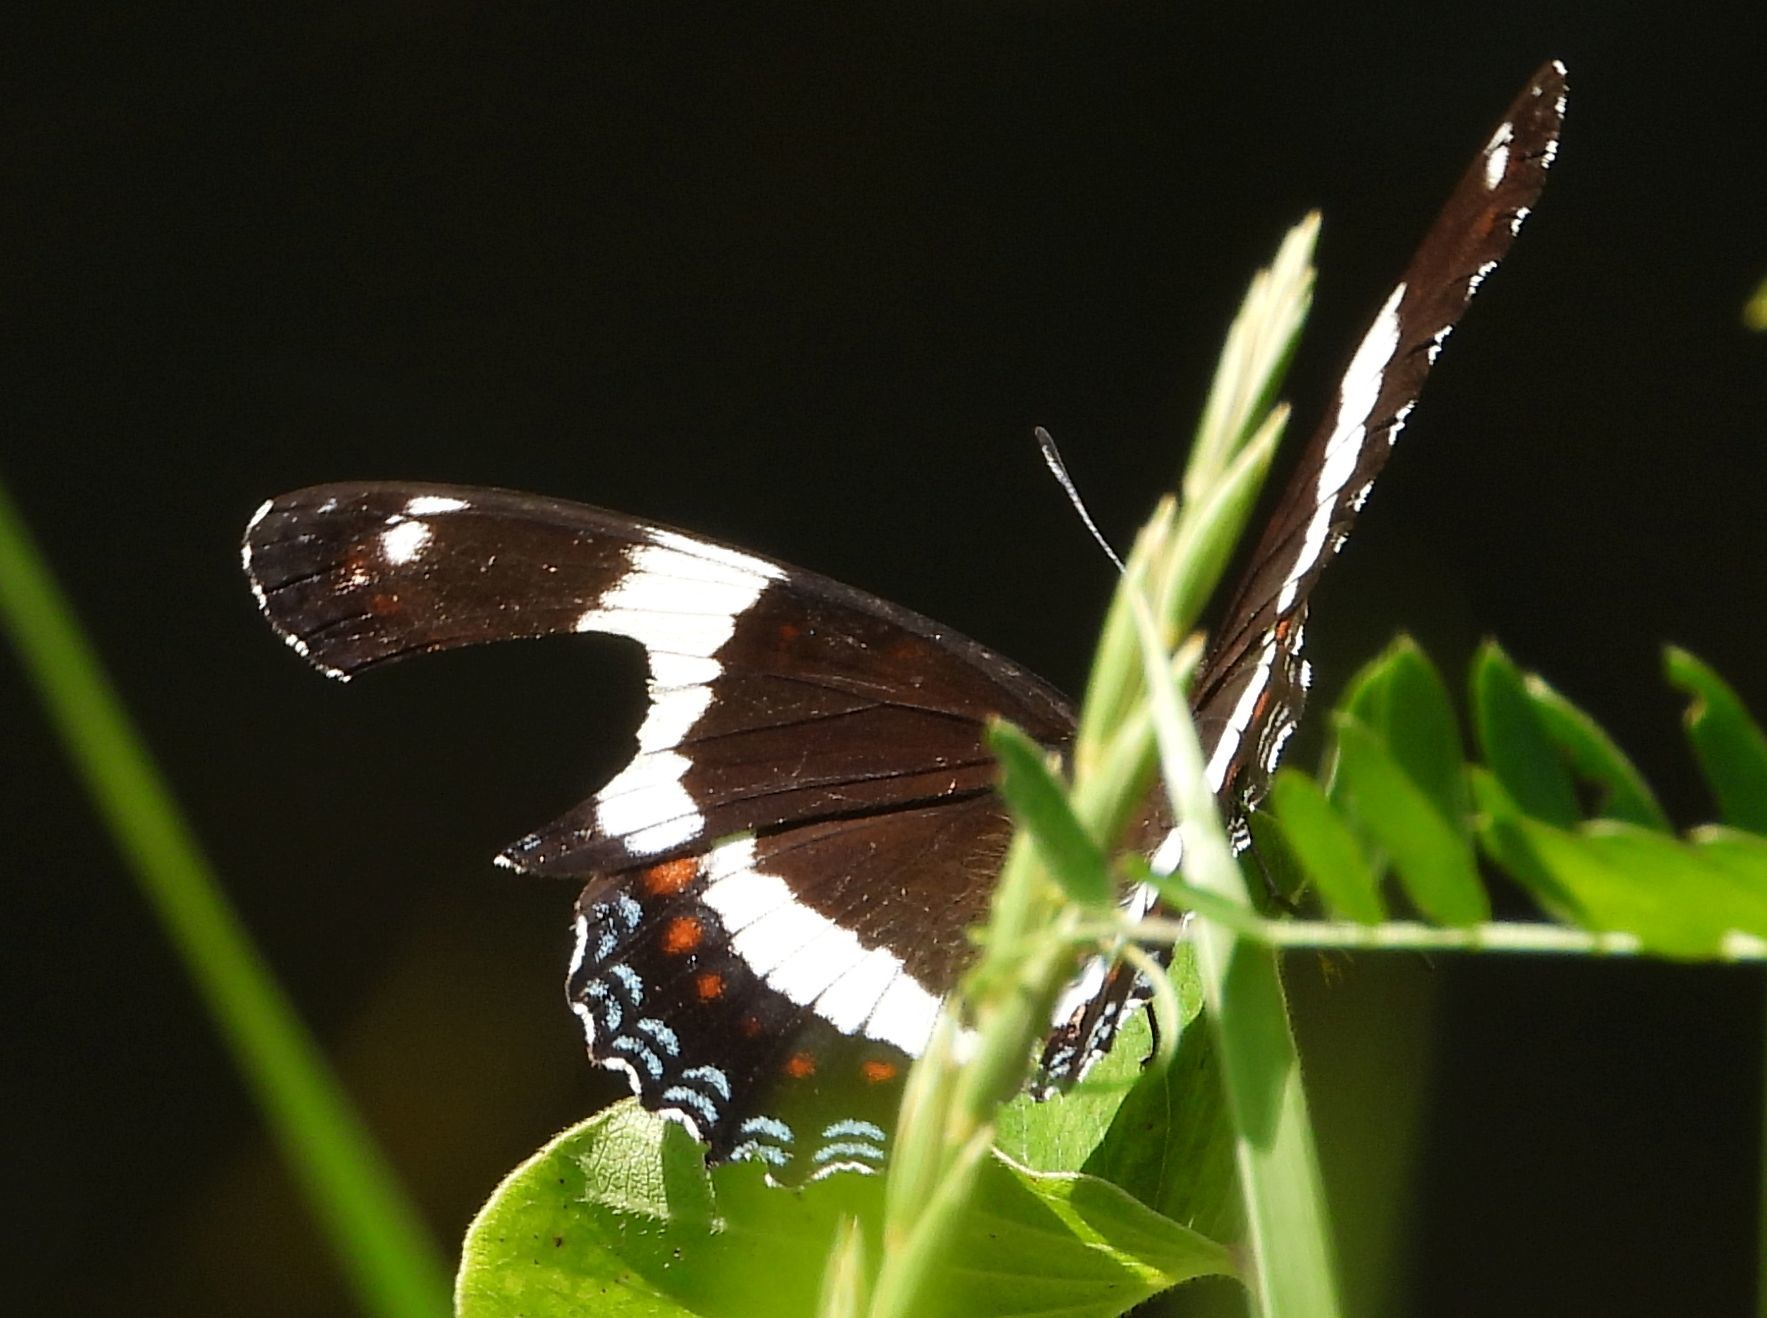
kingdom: Animalia
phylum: Arthropoda
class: Insecta
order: Lepidoptera
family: Nymphalidae
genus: Limenitis
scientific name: Limenitis arthemis
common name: Red-spotted admiral
